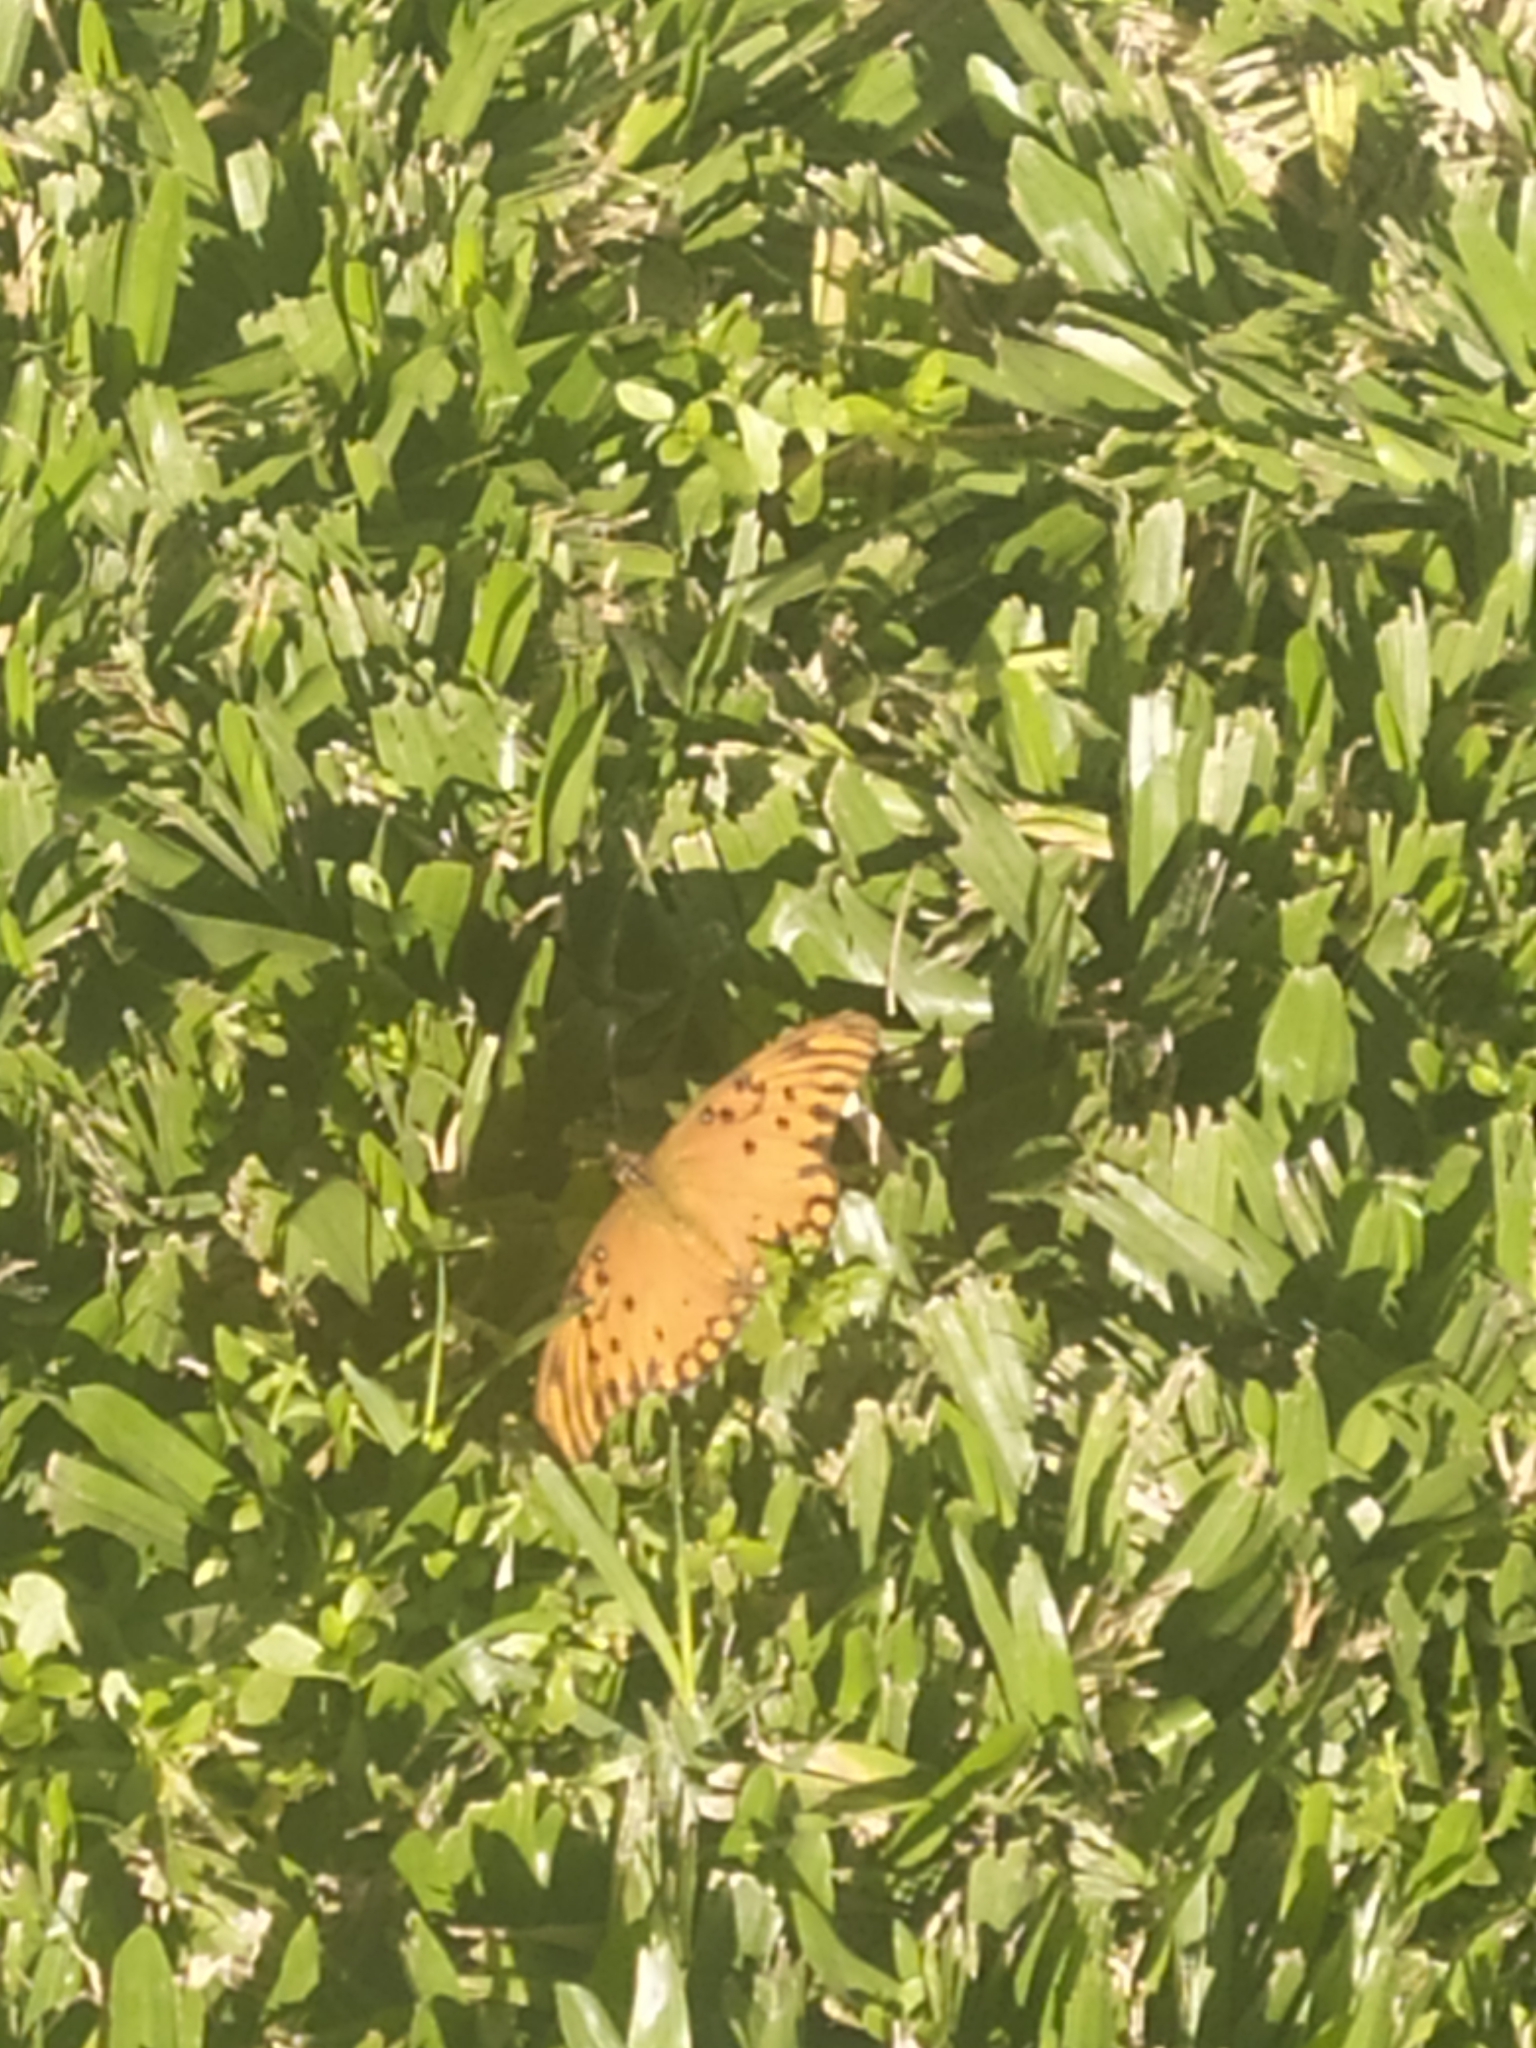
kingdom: Animalia
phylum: Arthropoda
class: Insecta
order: Lepidoptera
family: Nymphalidae
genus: Dione
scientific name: Dione vanillae
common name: Gulf fritillary
